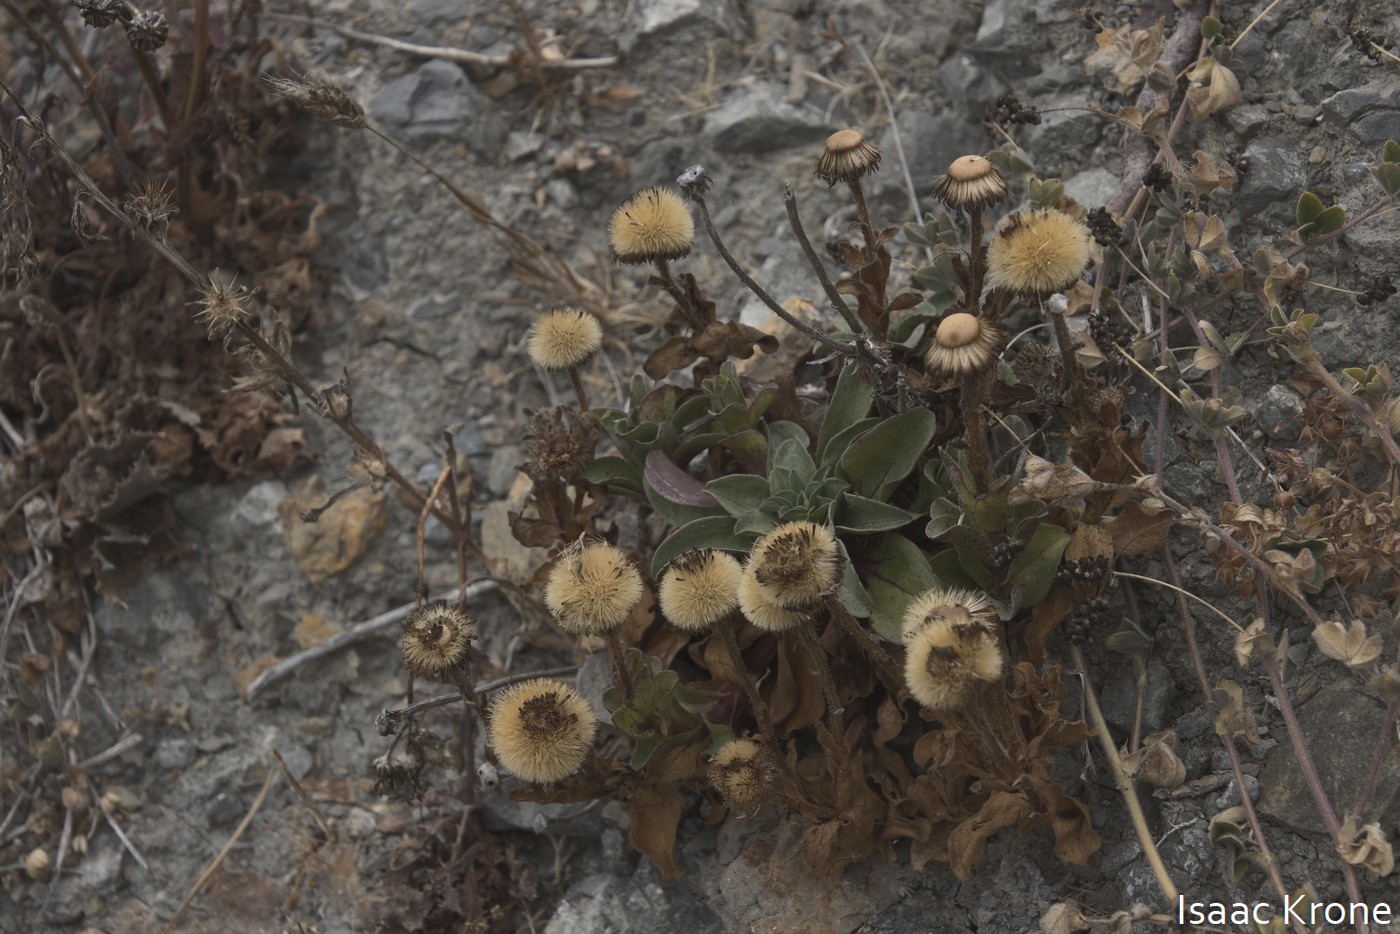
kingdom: Plantae
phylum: Tracheophyta
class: Magnoliopsida
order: Asterales
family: Asteraceae
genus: Erigeron
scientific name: Erigeron glaucus
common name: Seaside daisy
